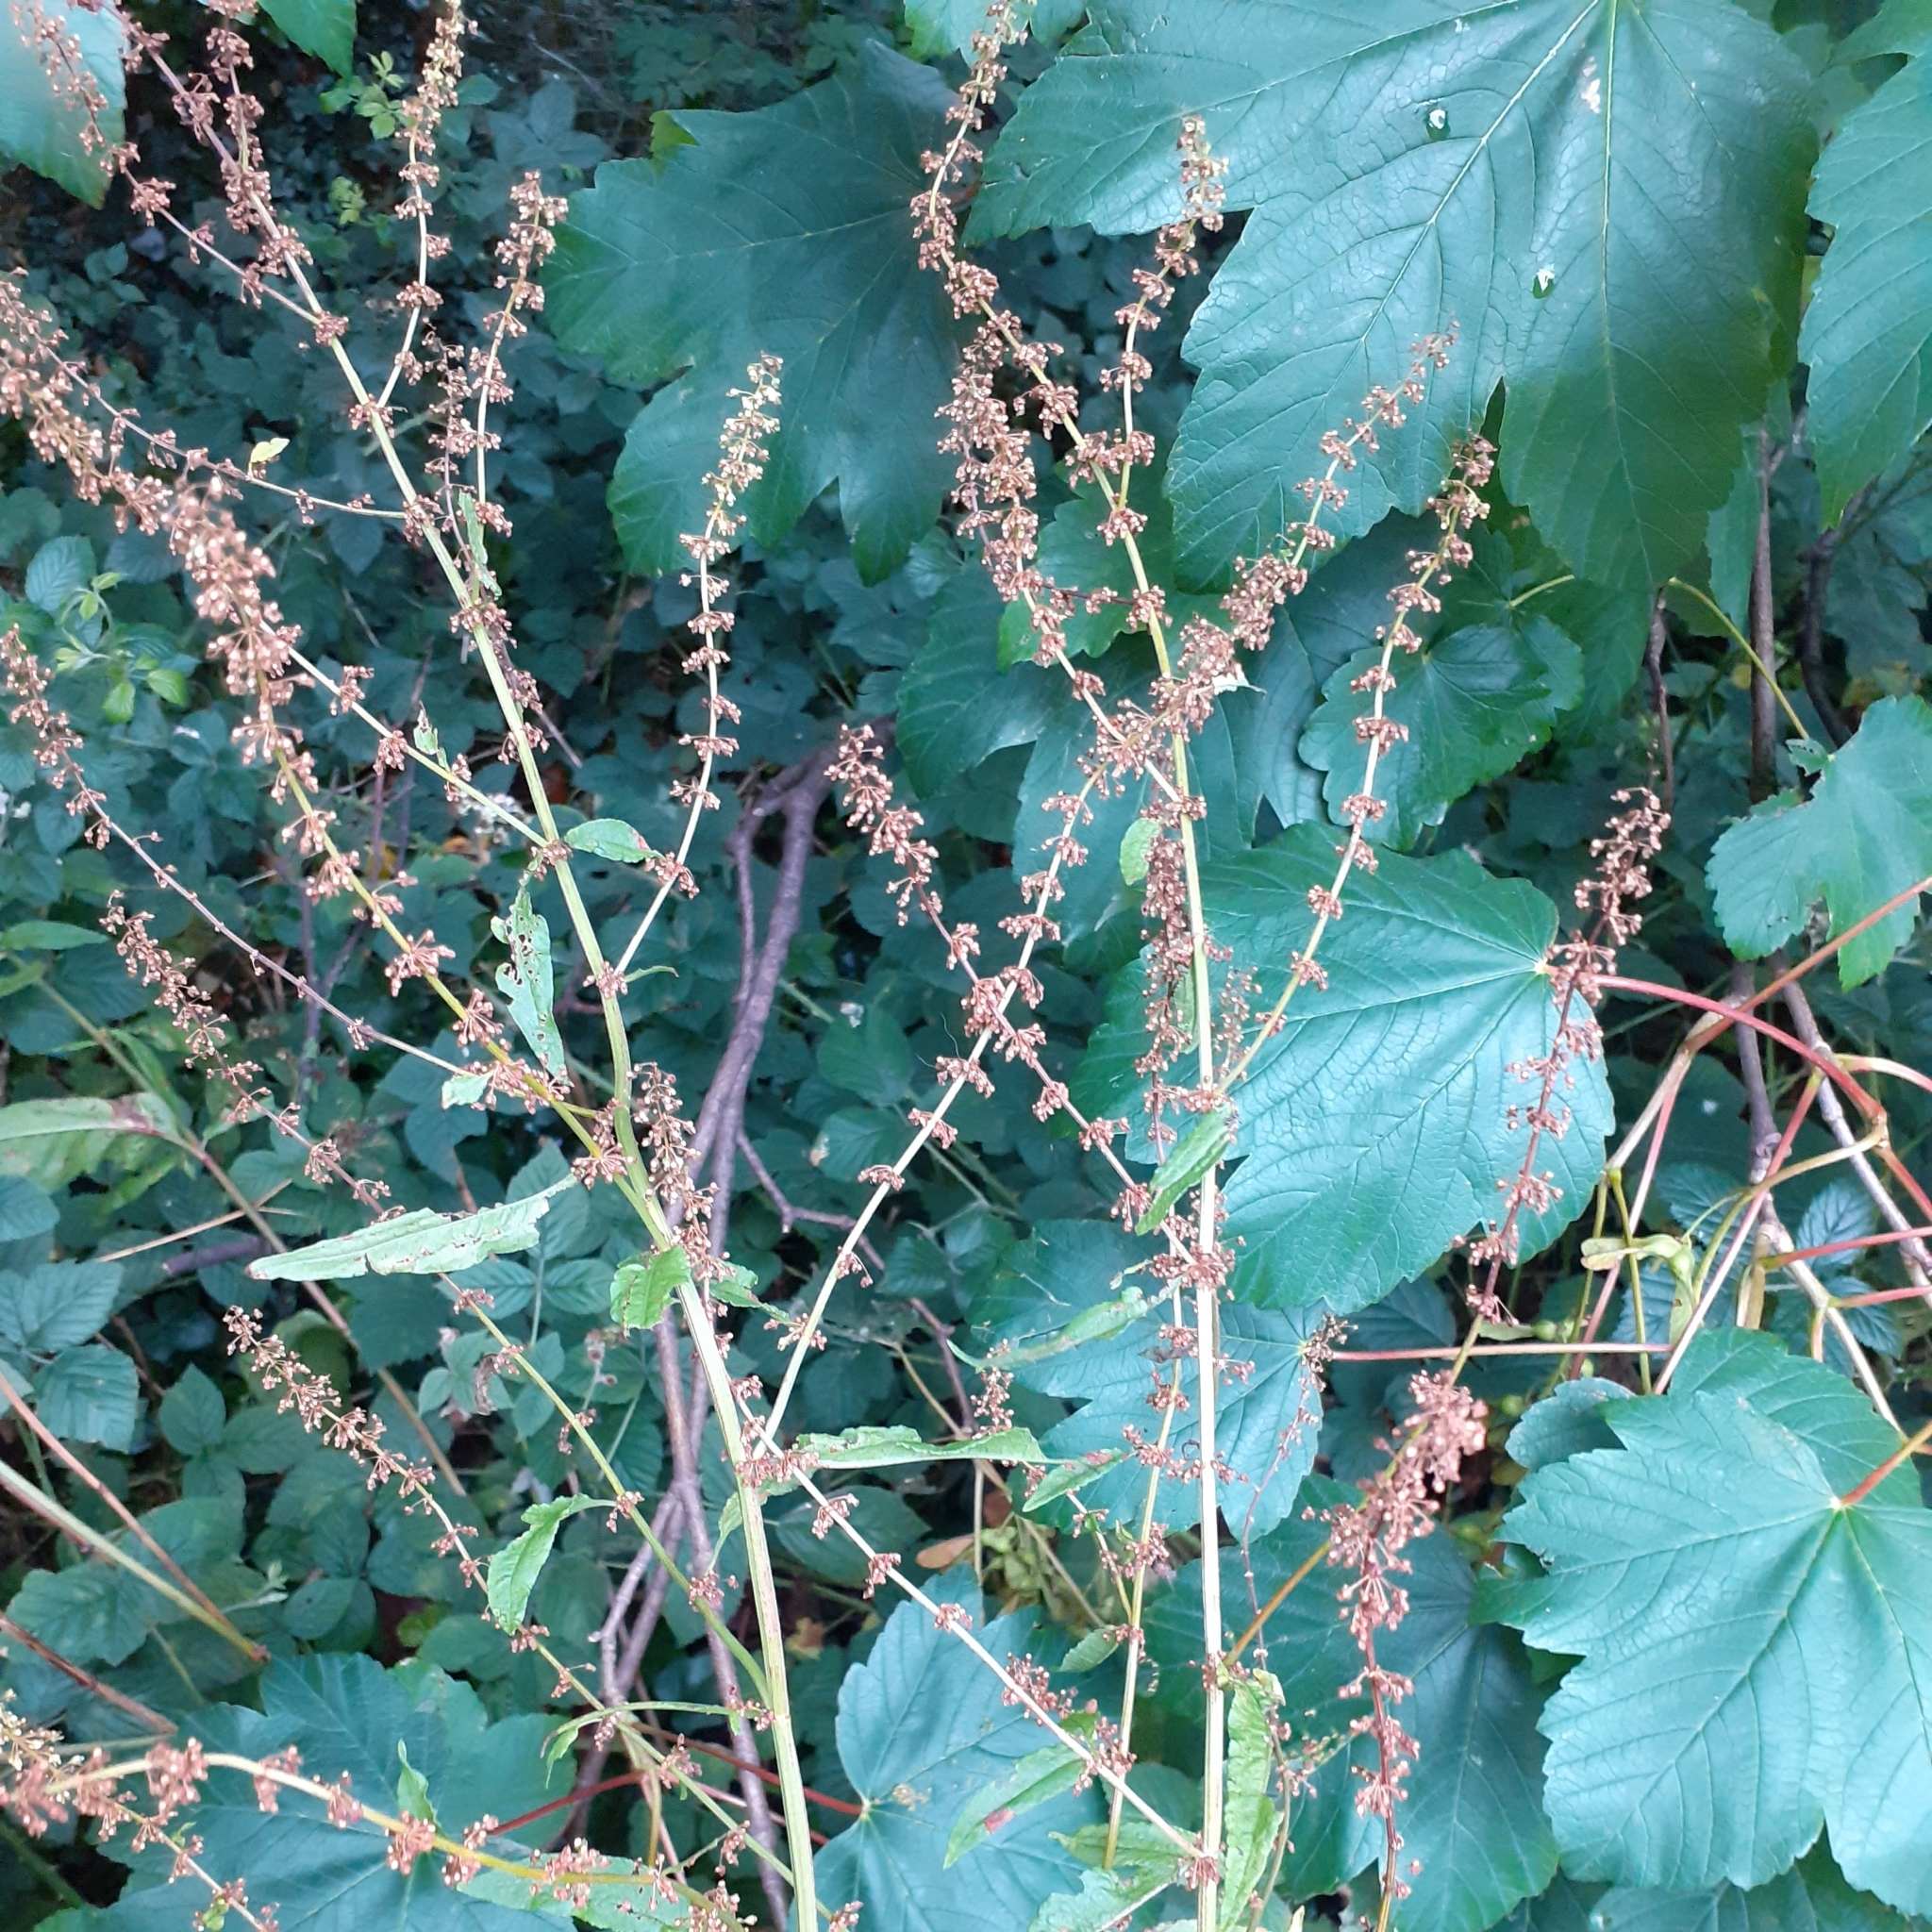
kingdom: Plantae
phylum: Tracheophyta
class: Magnoliopsida
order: Caryophyllales
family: Polygonaceae
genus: Rumex
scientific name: Rumex sanguineus
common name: Wood dock
